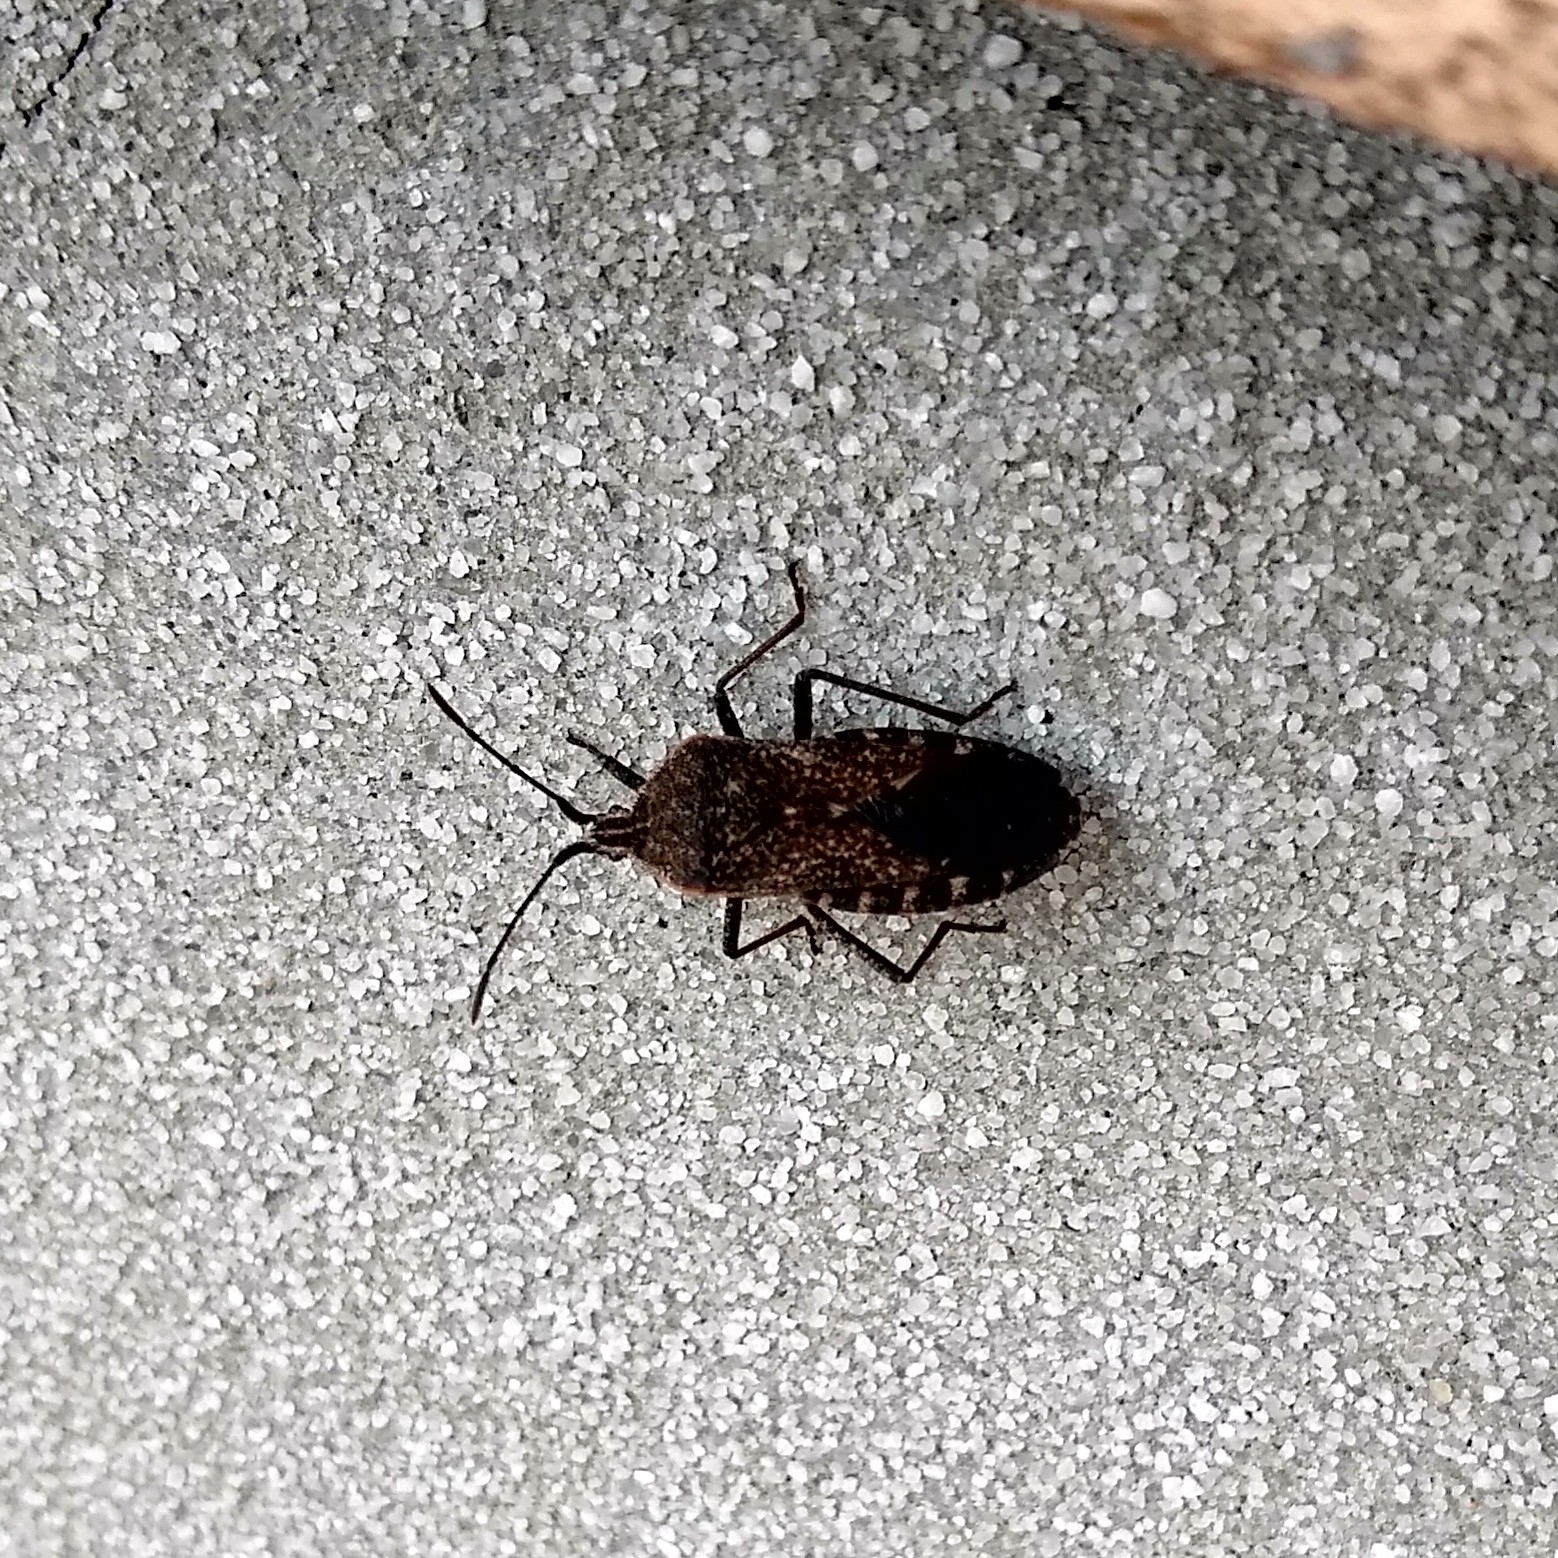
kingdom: Animalia
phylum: Arthropoda
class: Insecta
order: Hemiptera
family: Coreidae
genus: Anasa
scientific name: Anasa tristis
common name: Squash bug
